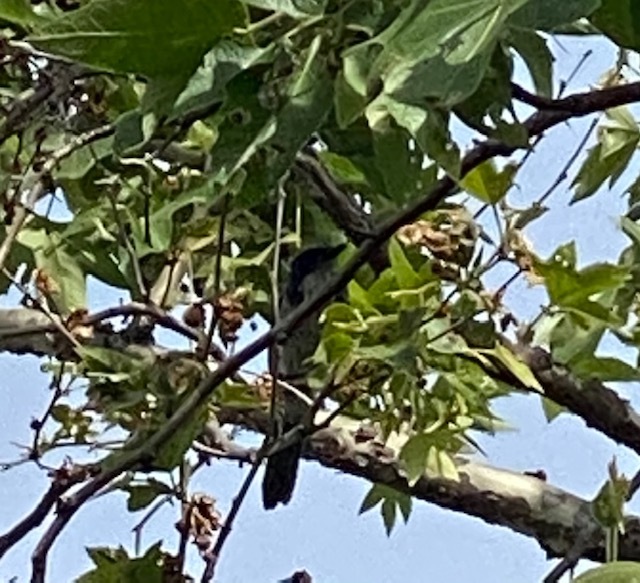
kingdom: Animalia
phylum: Chordata
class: Aves
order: Passeriformes
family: Corvidae
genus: Aphelocoma
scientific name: Aphelocoma californica
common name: California scrub-jay
